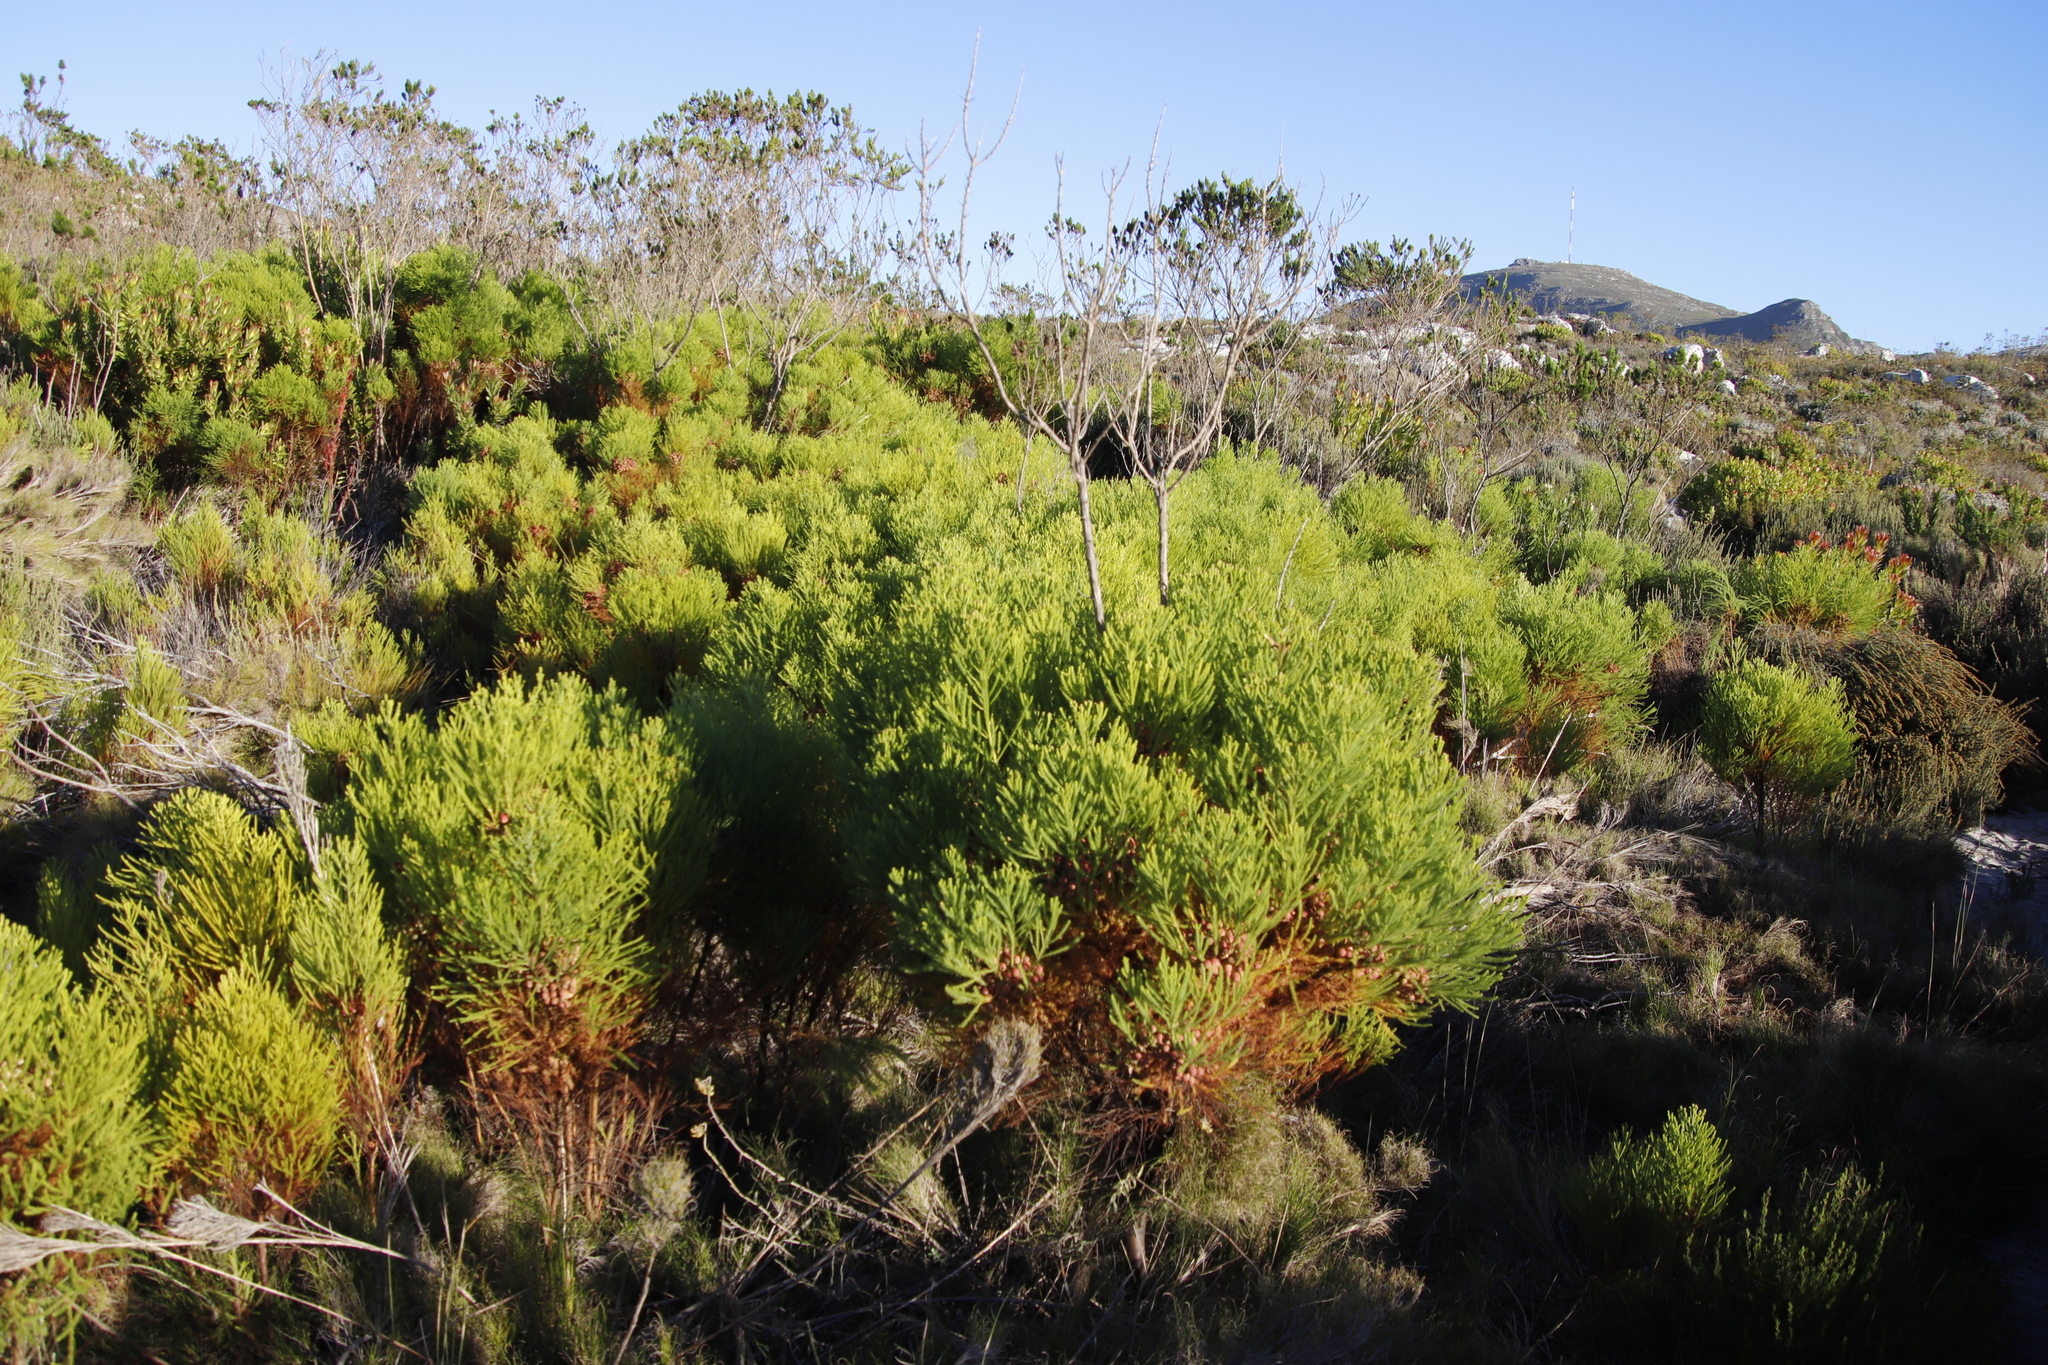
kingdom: Plantae
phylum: Tracheophyta
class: Magnoliopsida
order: Bruniales
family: Bruniaceae
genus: Berzelia
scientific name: Berzelia lanuginosa
